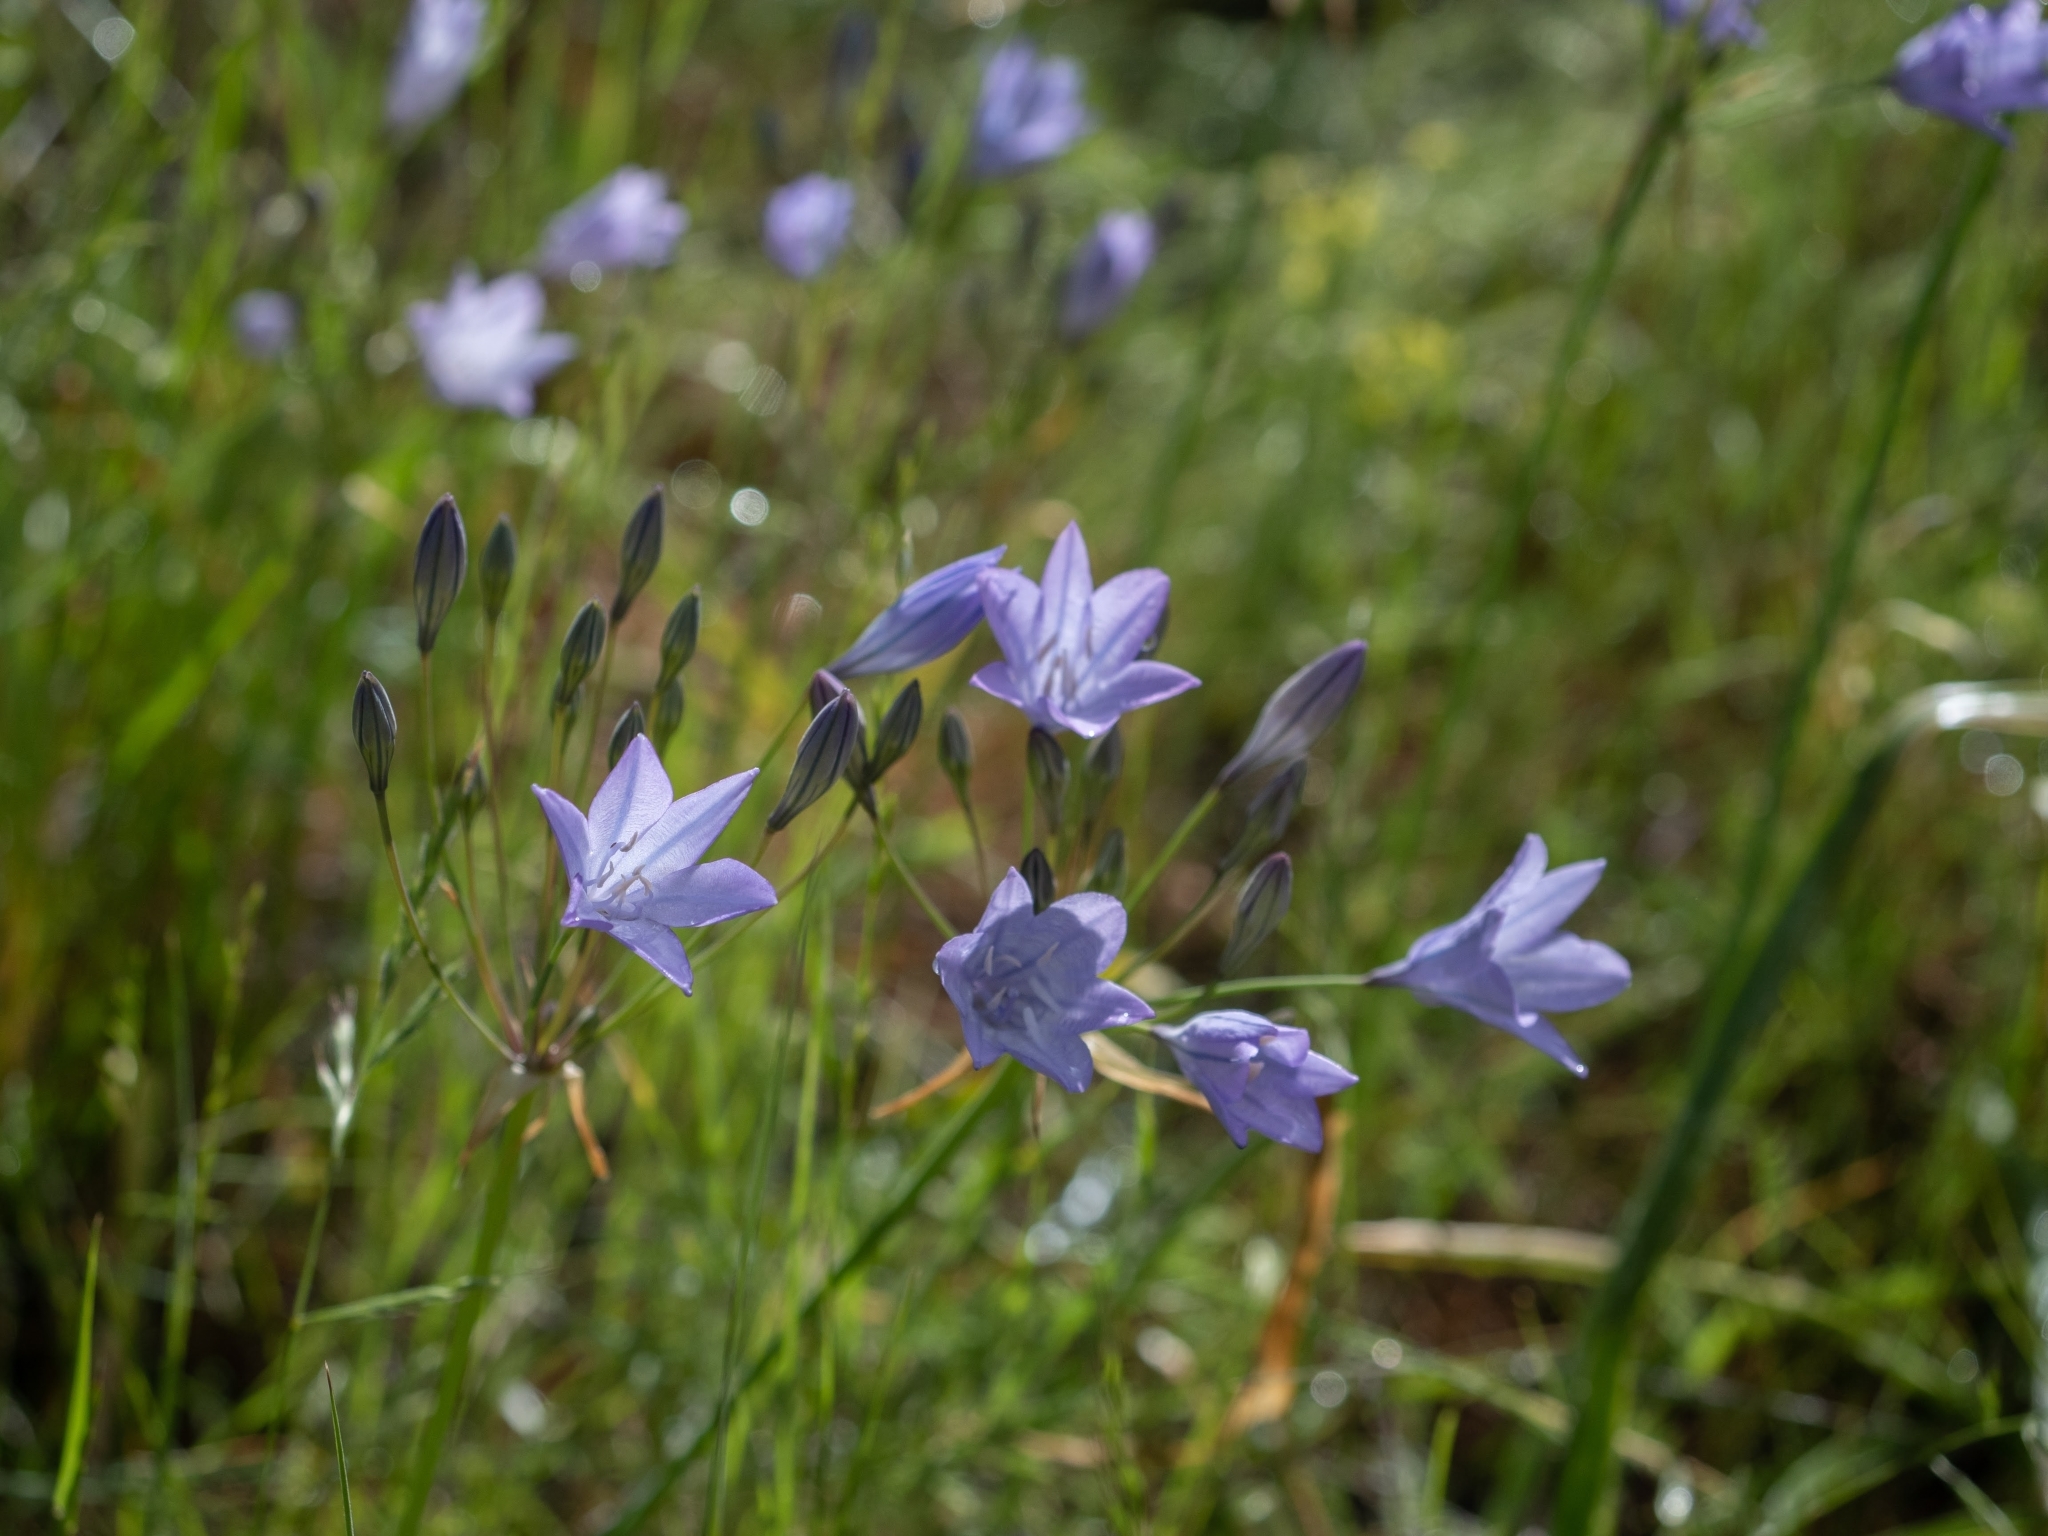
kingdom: Plantae
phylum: Tracheophyta
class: Liliopsida
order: Asparagales
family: Asparagaceae
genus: Triteleia
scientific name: Triteleia laxa
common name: Triplet-lily
